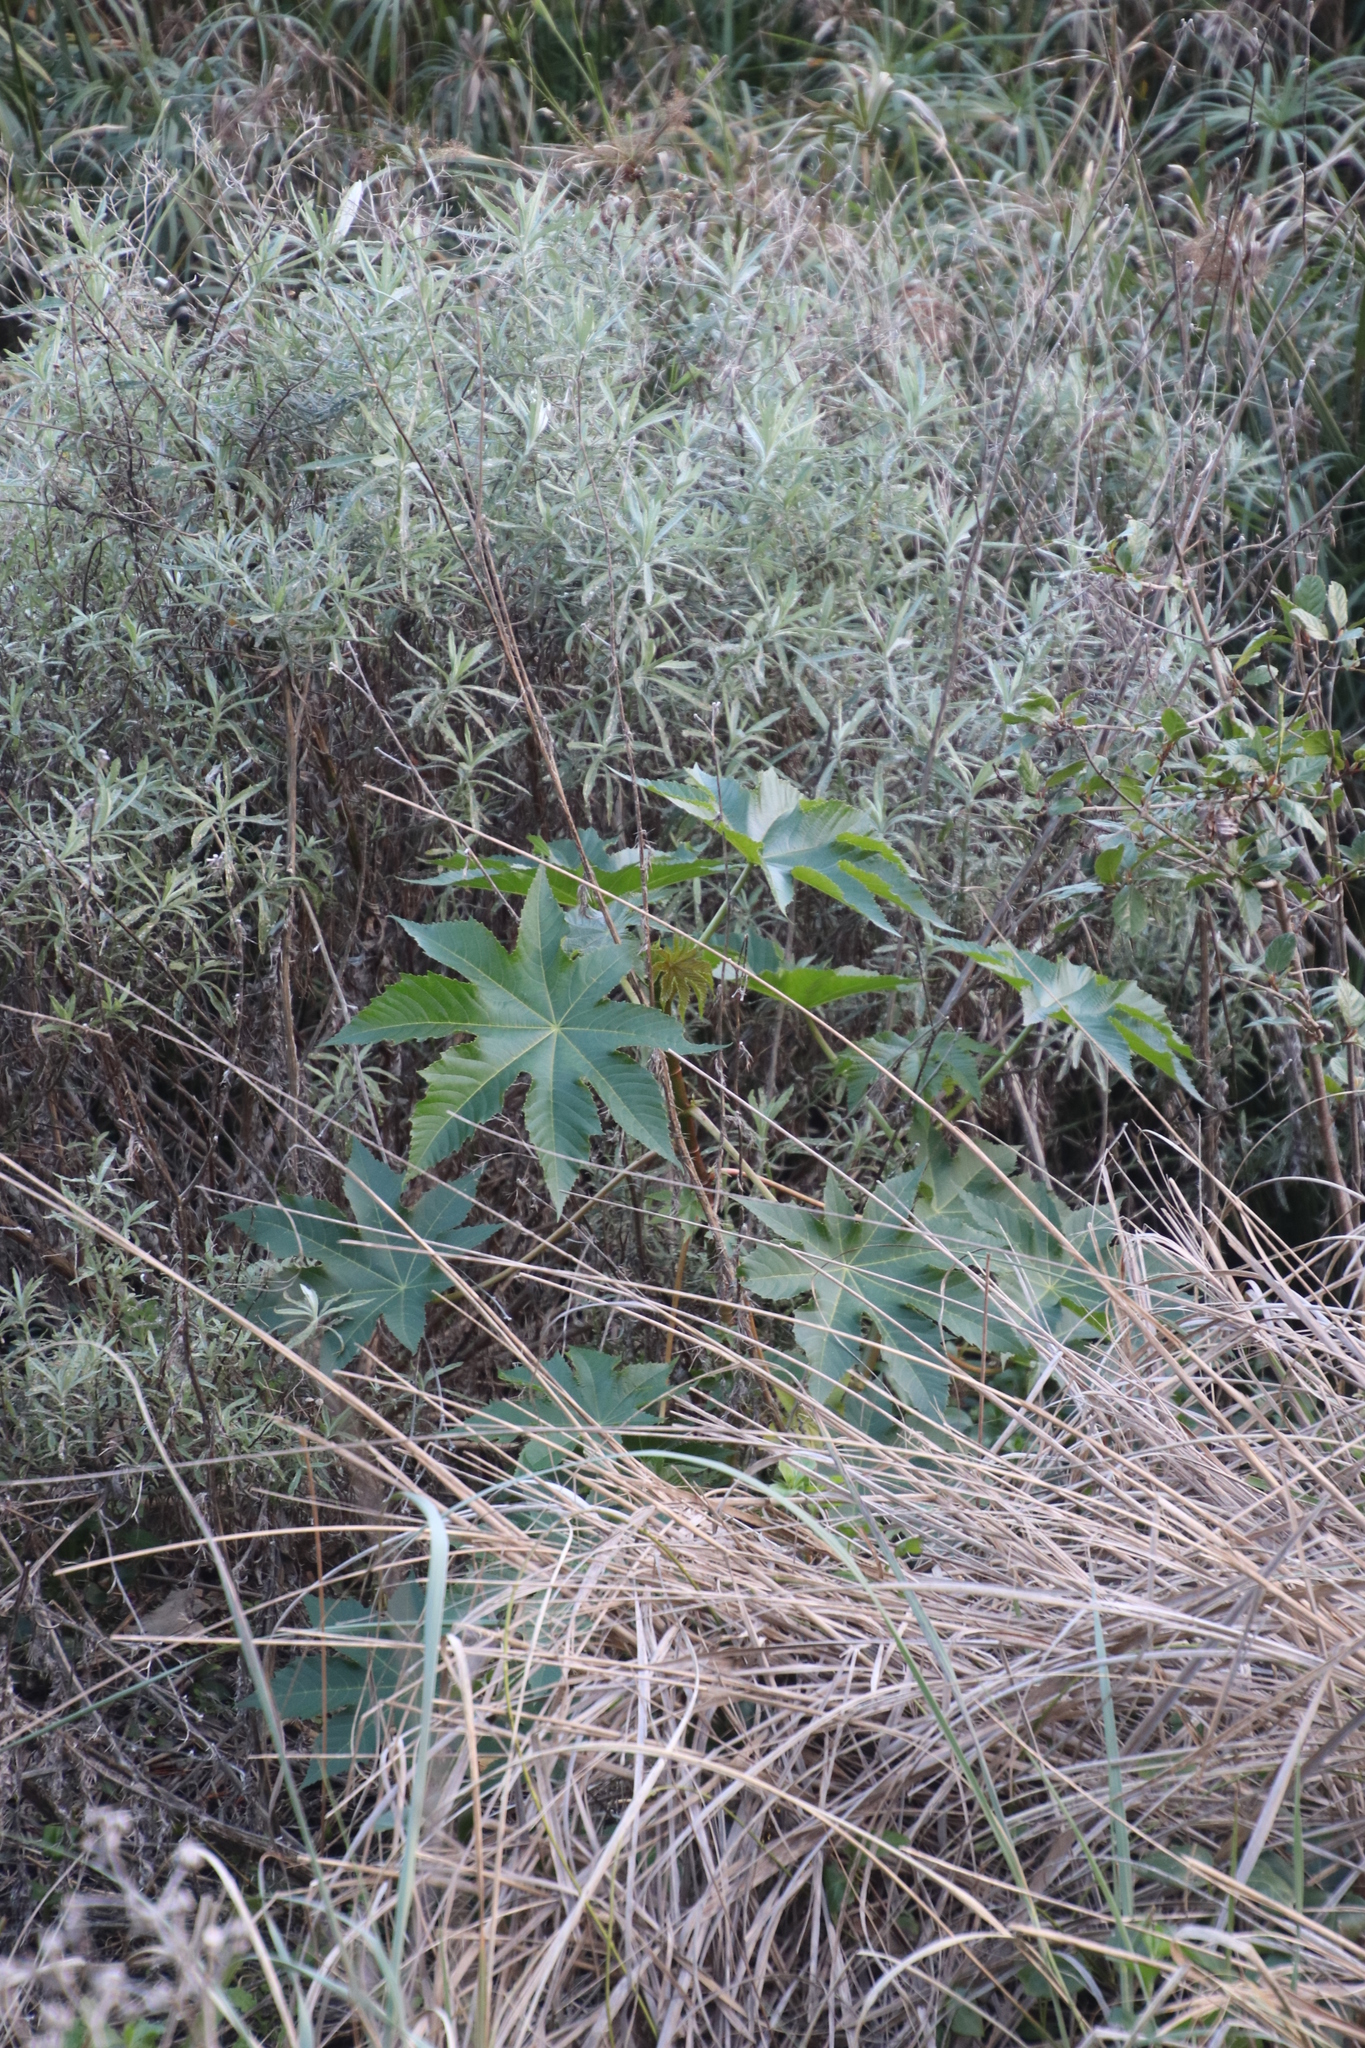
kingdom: Plantae
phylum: Tracheophyta
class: Magnoliopsida
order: Malpighiales
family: Euphorbiaceae
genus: Ricinus
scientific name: Ricinus communis
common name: Castor-oil-plant
